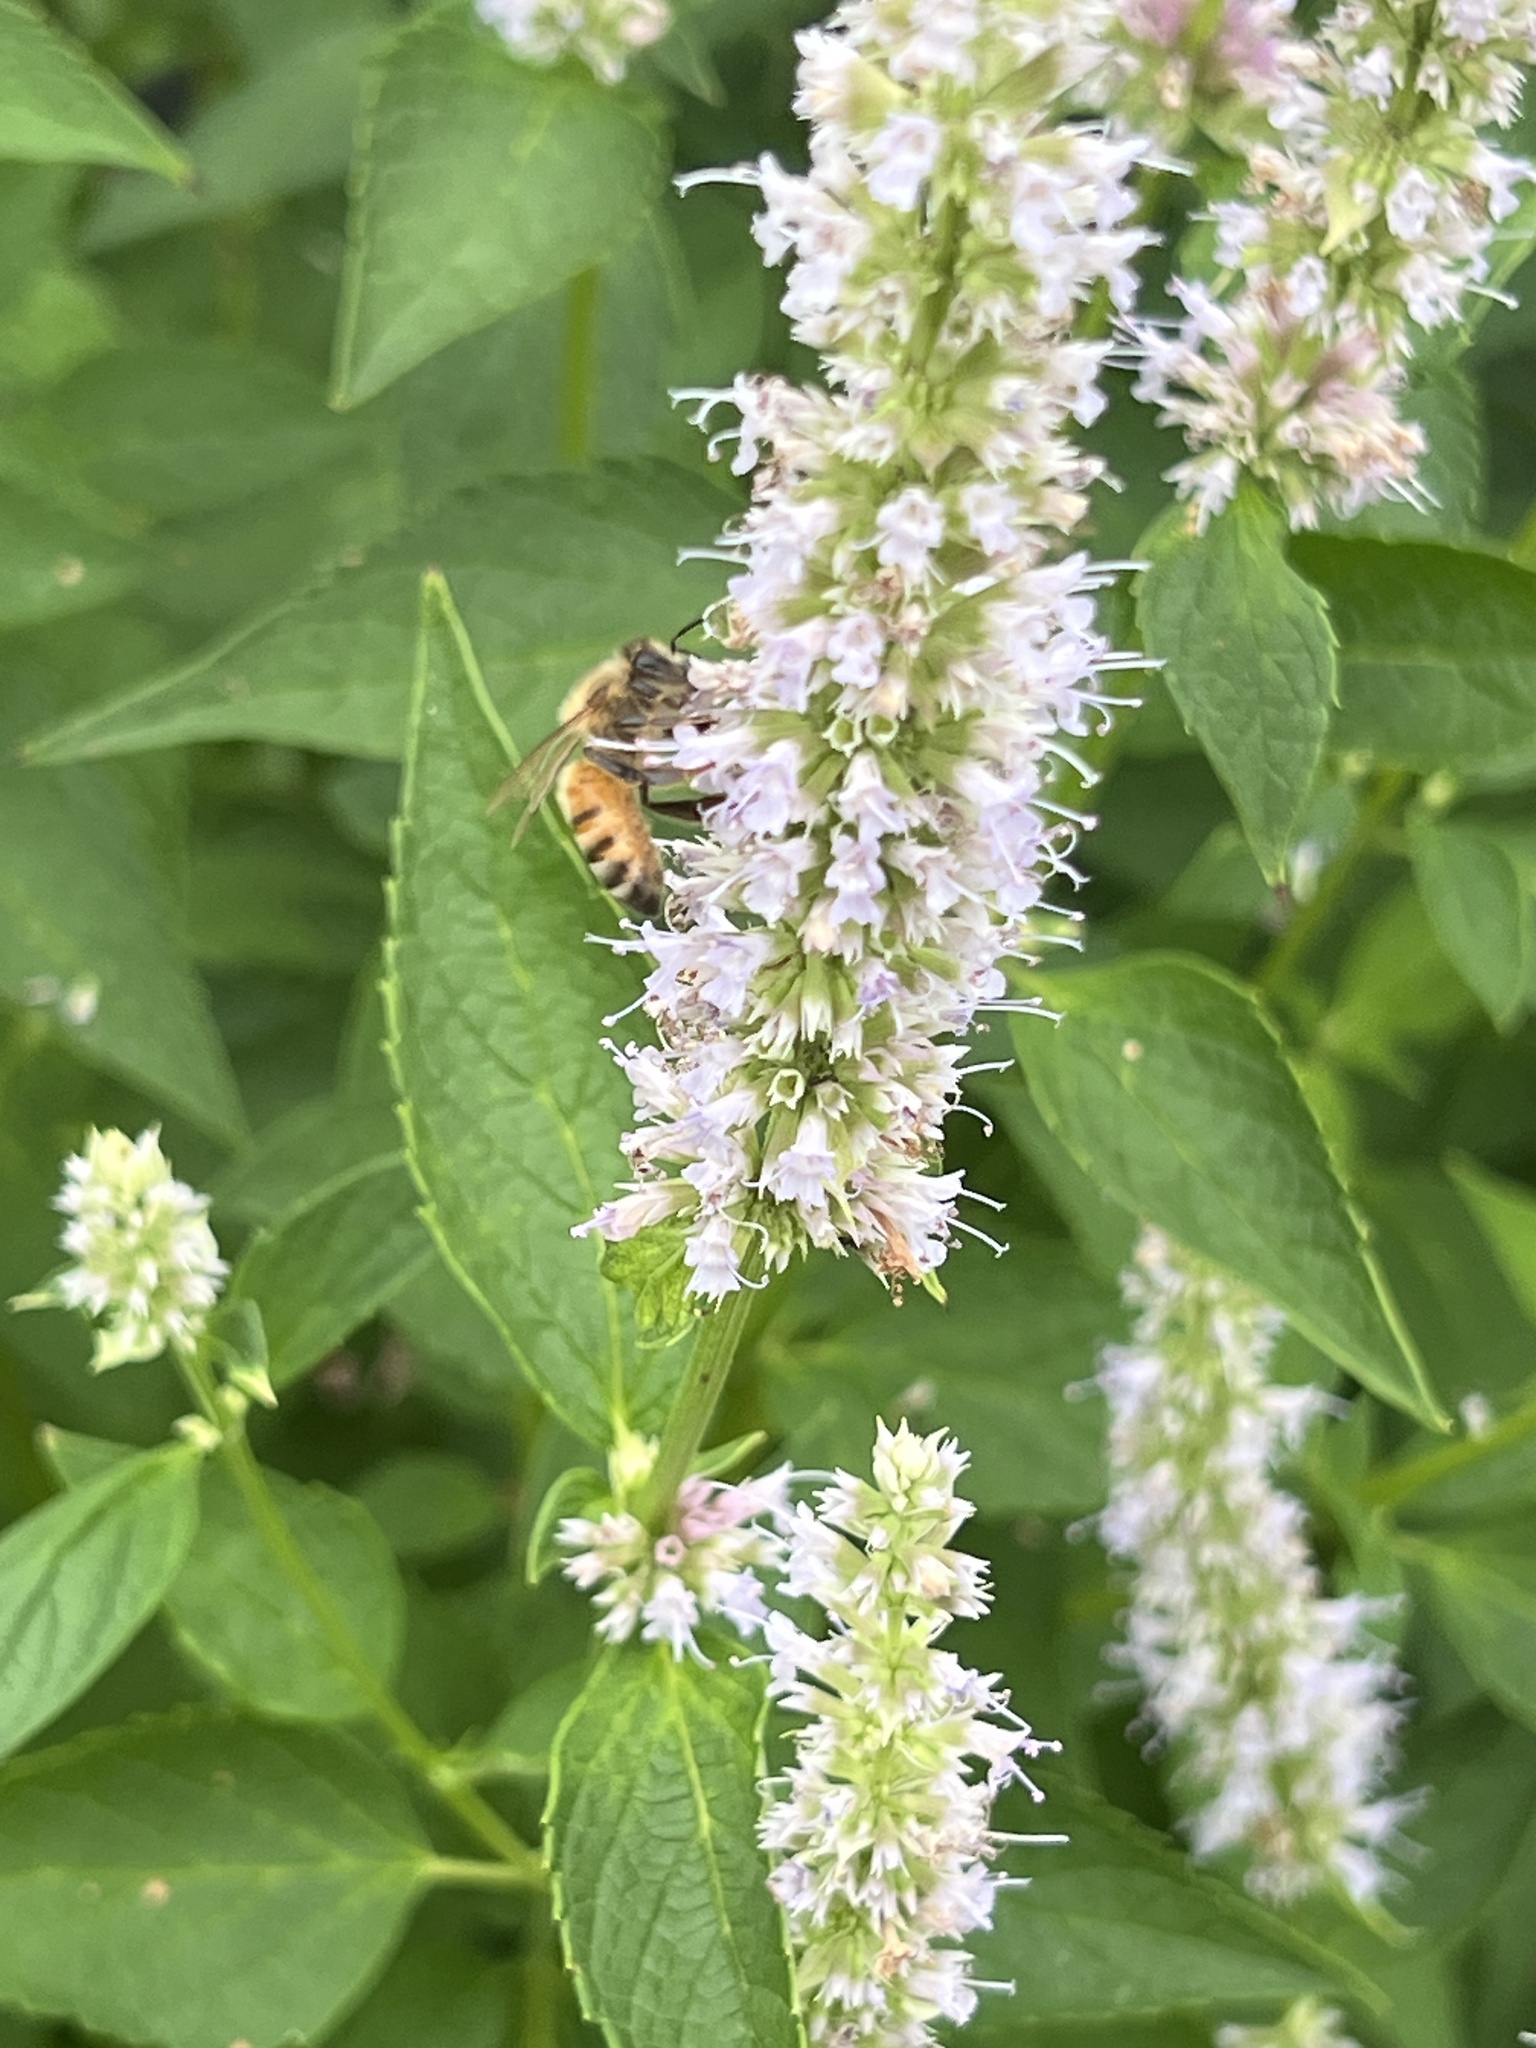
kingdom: Animalia
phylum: Arthropoda
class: Insecta
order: Hymenoptera
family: Apidae
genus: Apis
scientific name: Apis mellifera
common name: Honey bee
